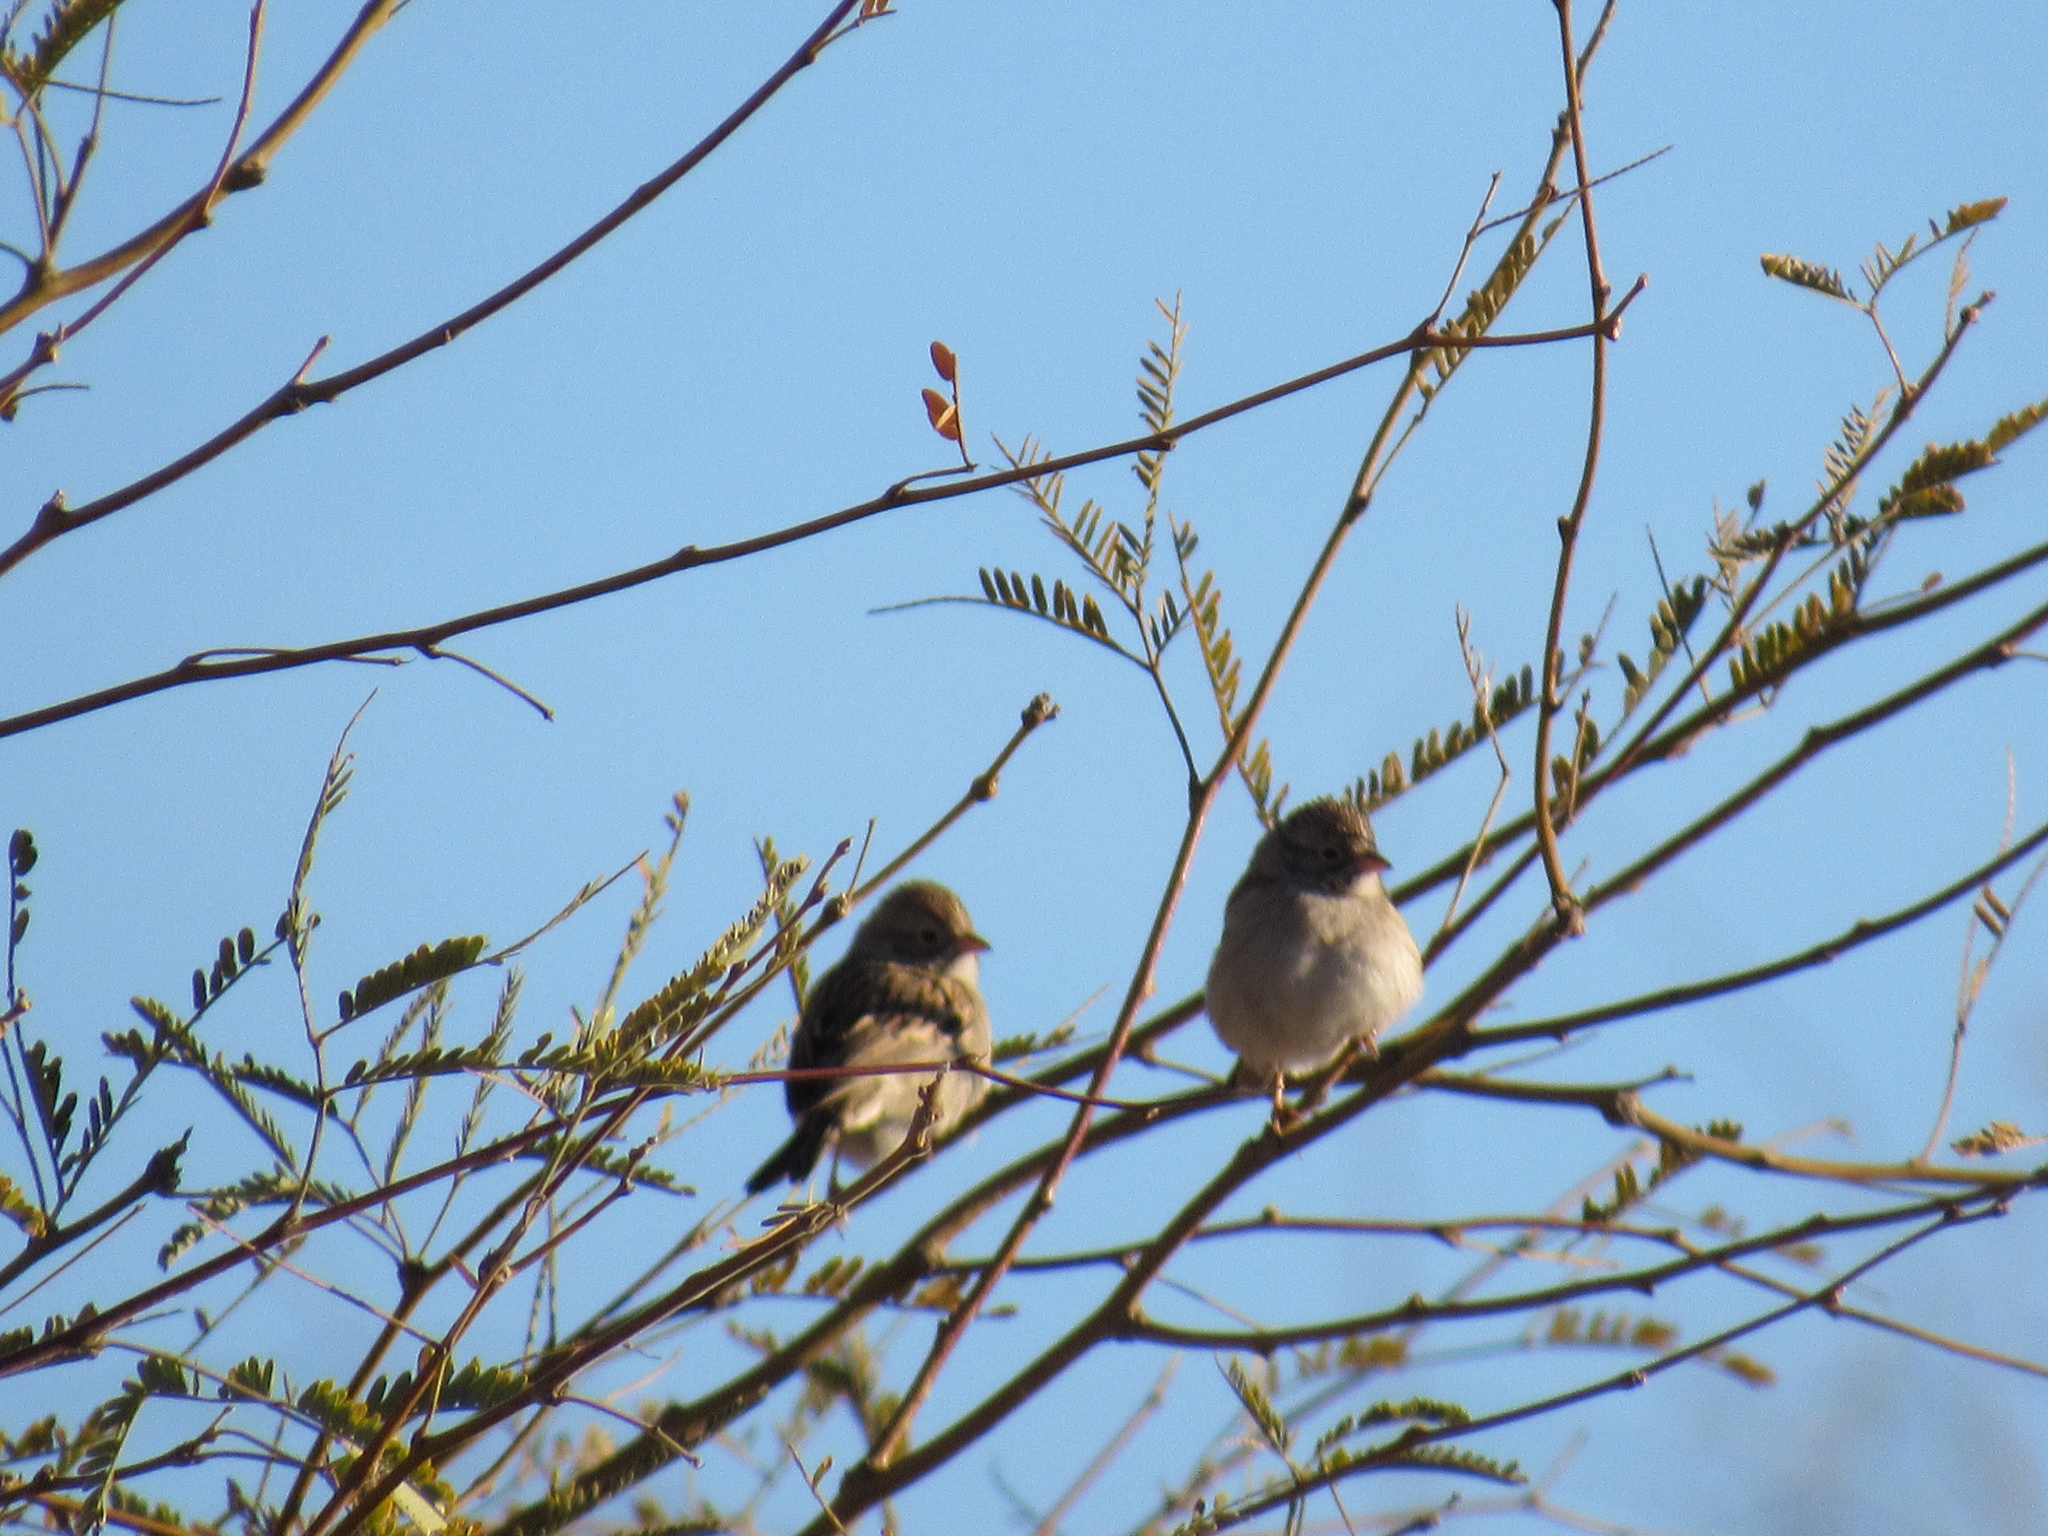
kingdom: Animalia
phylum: Chordata
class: Aves
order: Passeriformes
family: Passerellidae
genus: Spizella
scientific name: Spizella passerina
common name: Chipping sparrow
